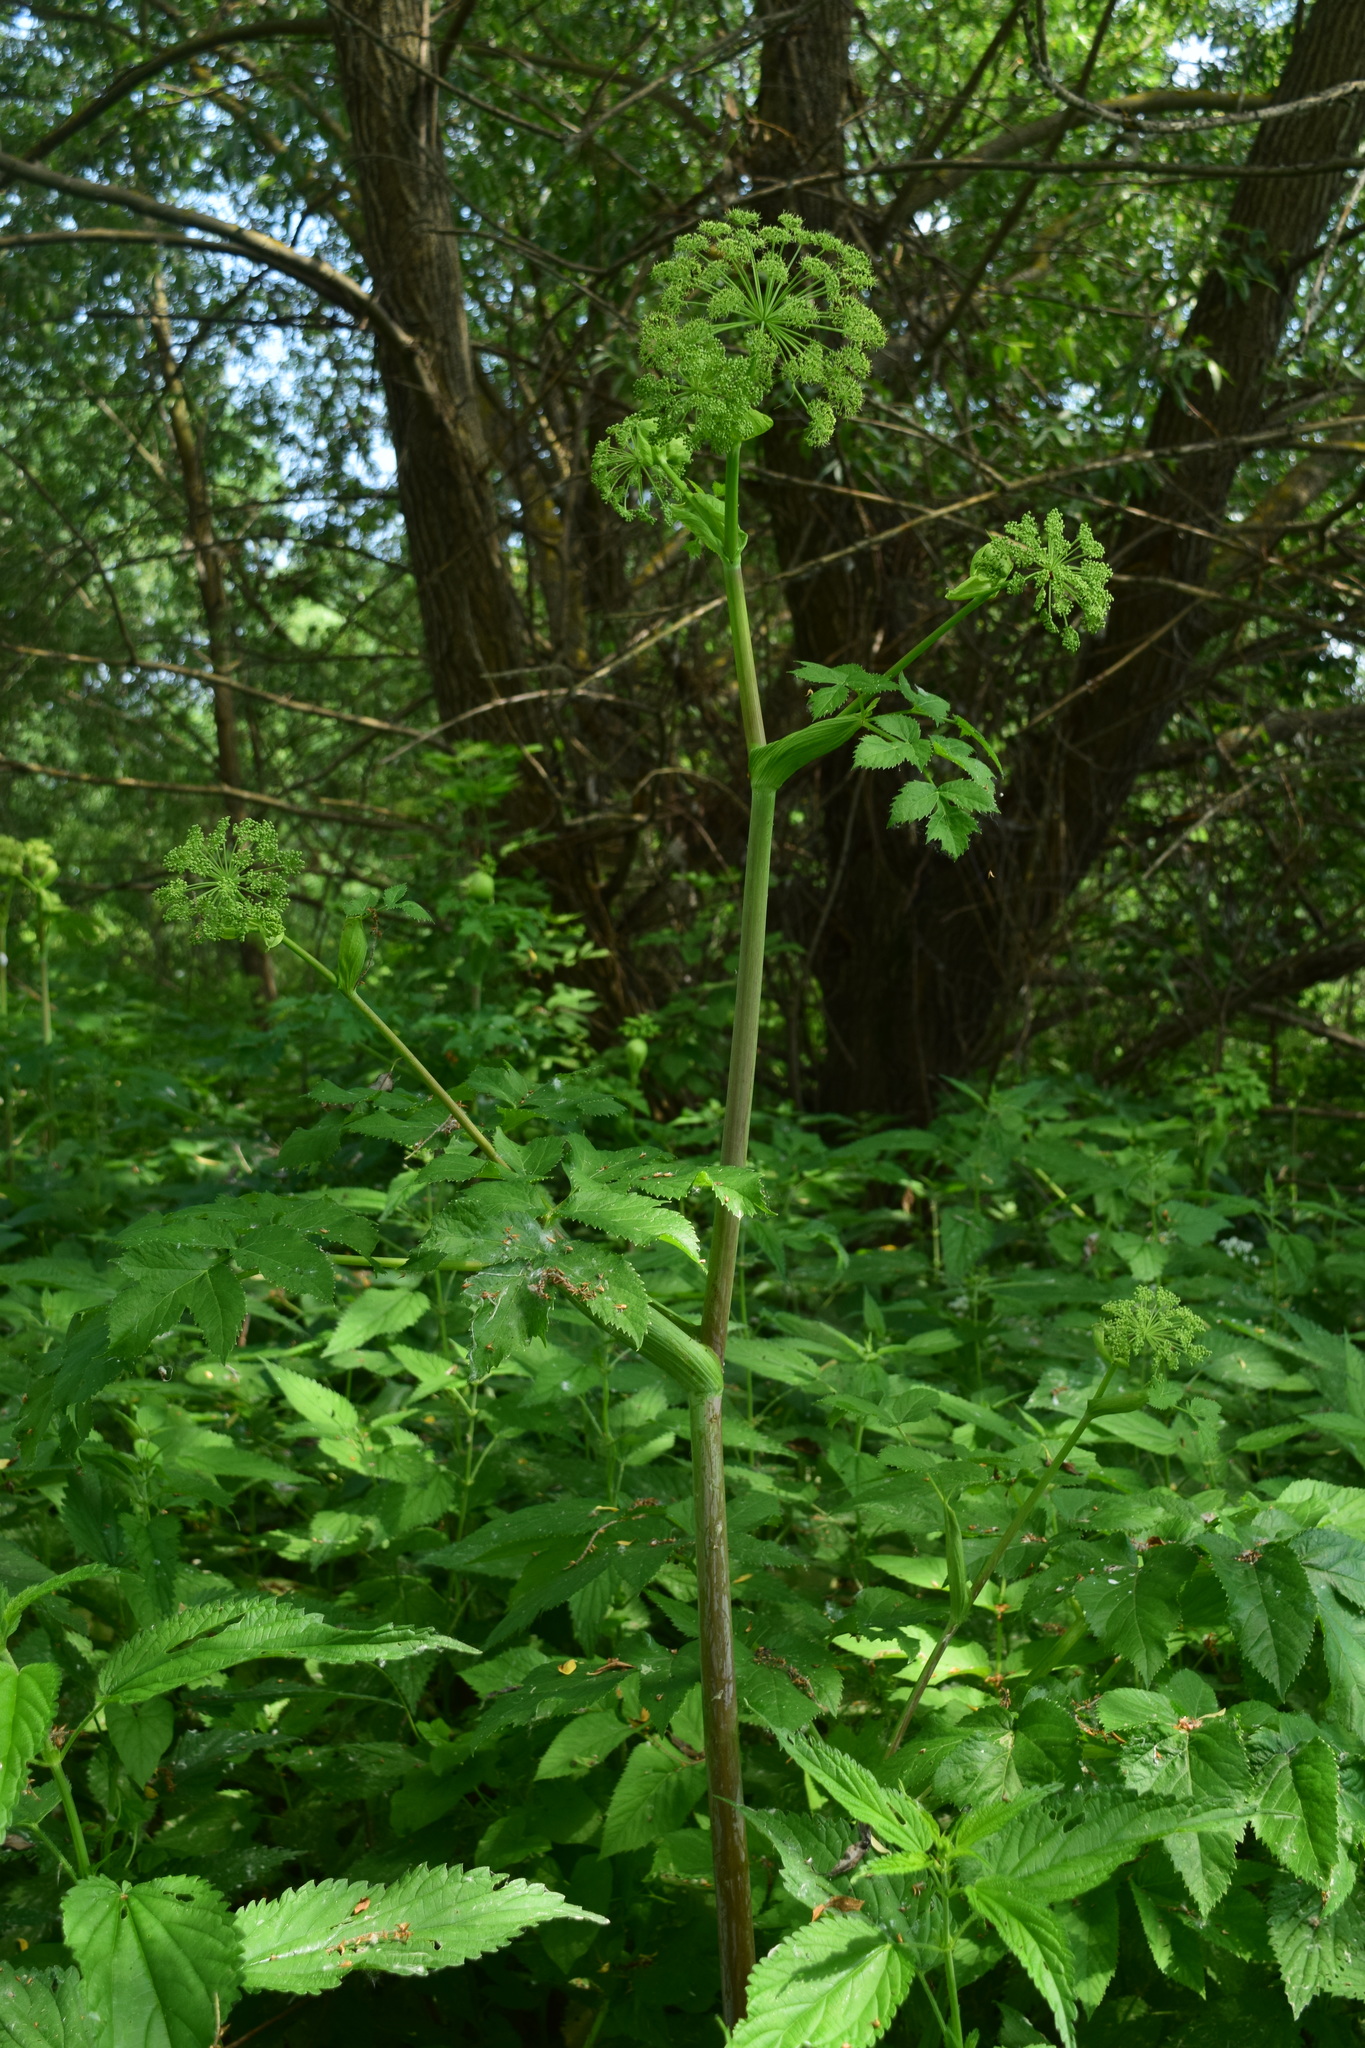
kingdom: Plantae
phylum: Tracheophyta
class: Magnoliopsida
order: Apiales
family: Apiaceae
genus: Angelica
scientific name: Angelica archangelica
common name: Garden angelica
